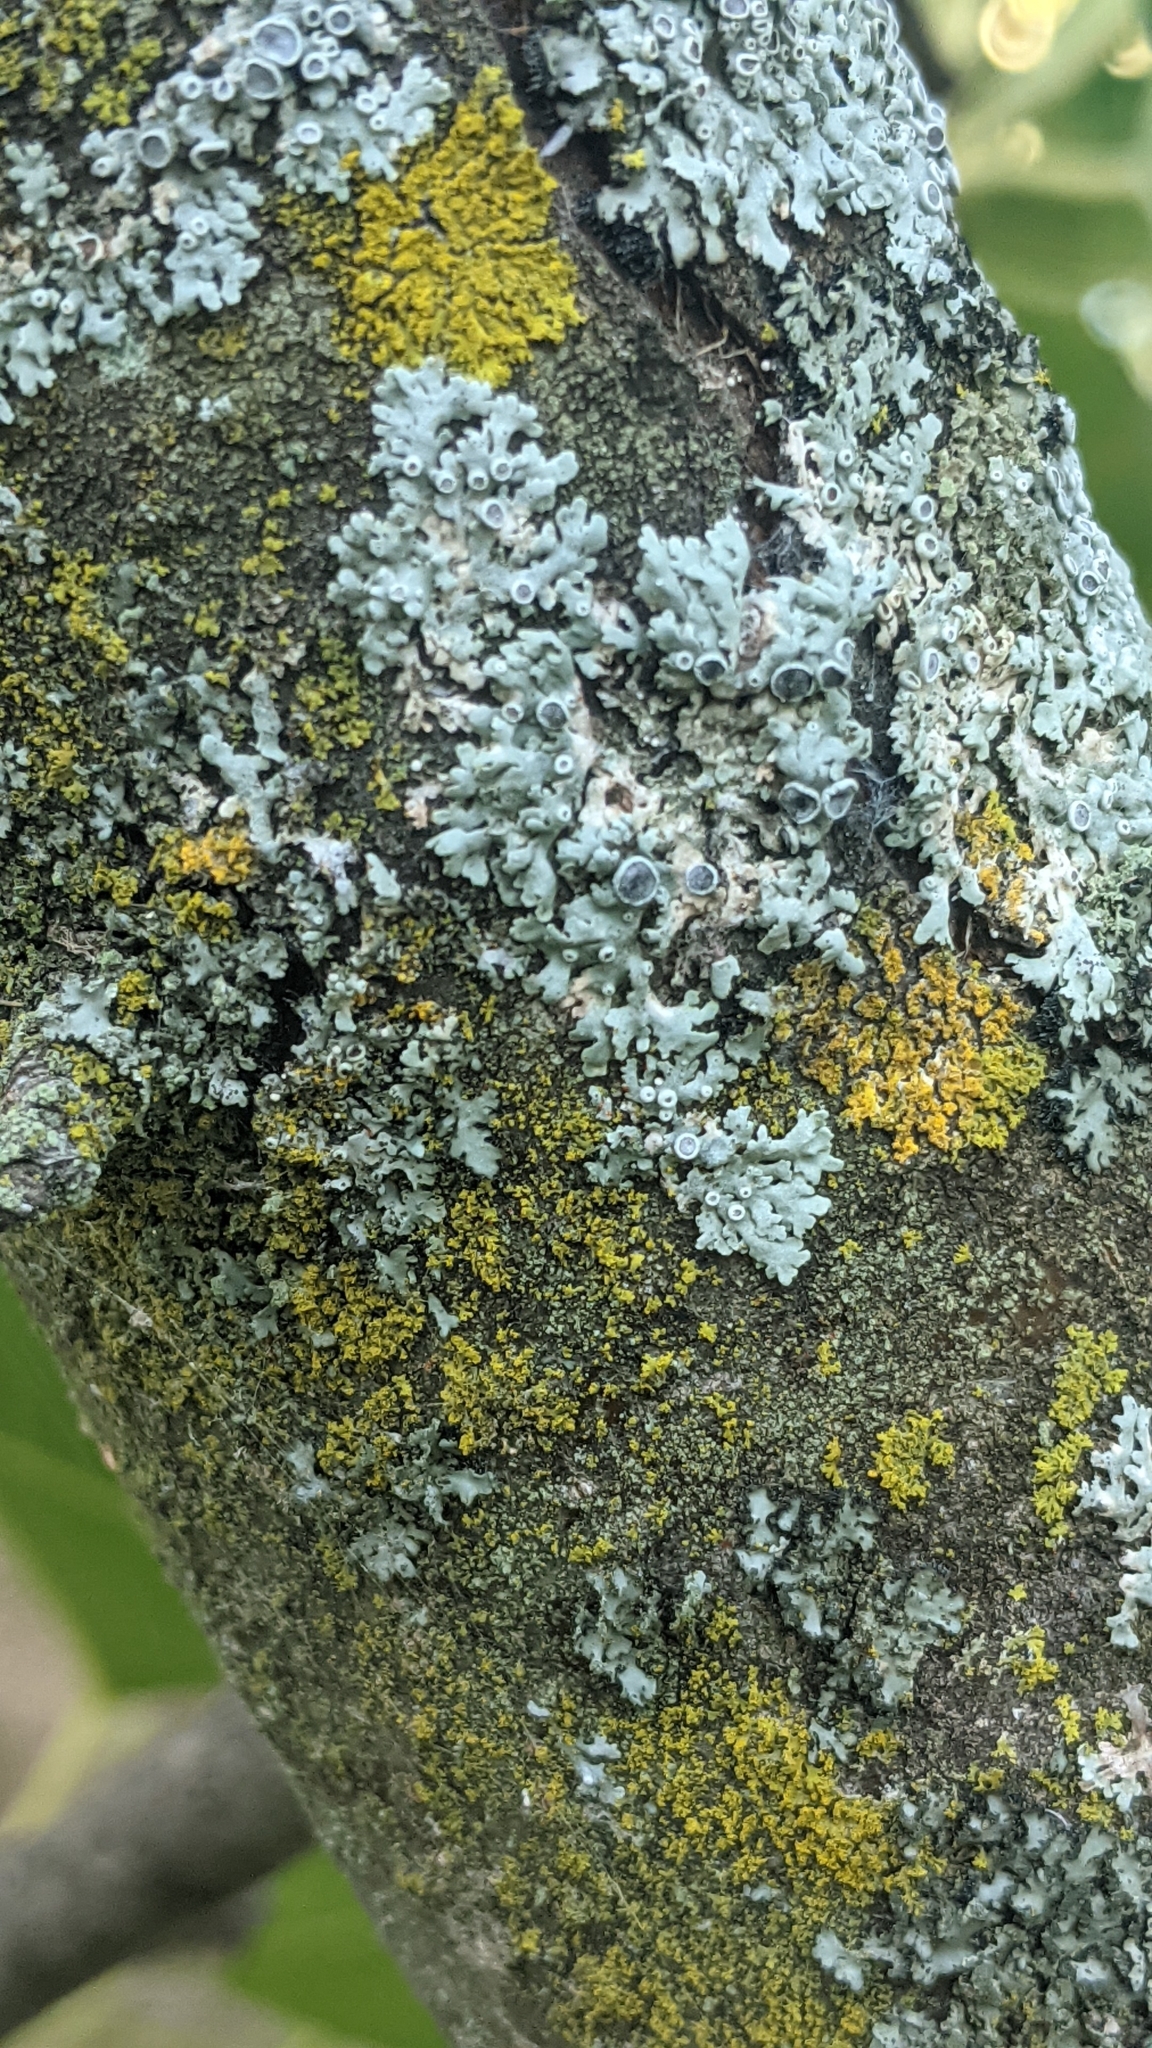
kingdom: Fungi
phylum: Ascomycota
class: Lecanoromycetes
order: Caliciales
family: Physciaceae
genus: Physcia
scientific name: Physcia
